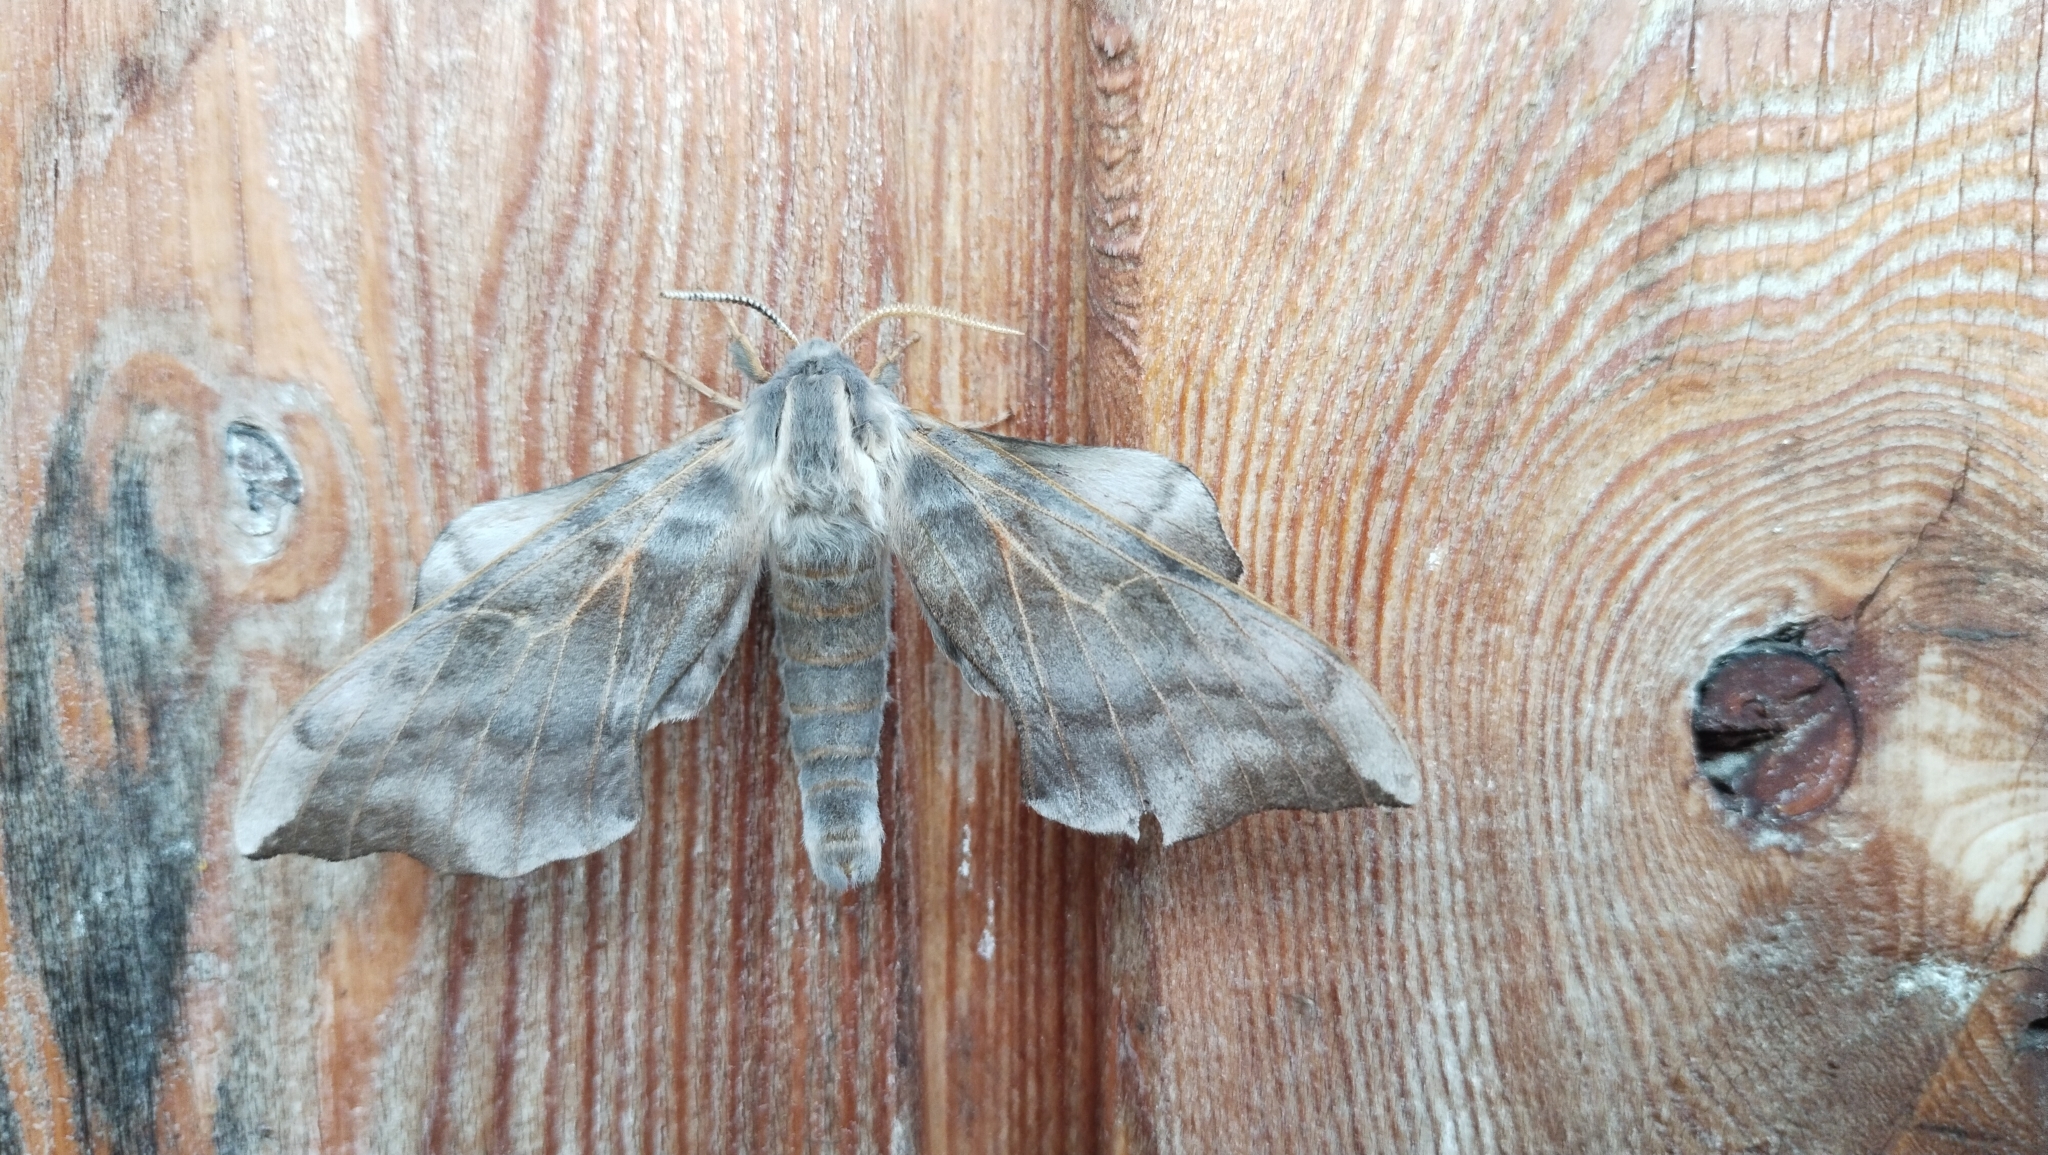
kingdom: Animalia
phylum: Arthropoda
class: Insecta
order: Lepidoptera
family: Sphingidae
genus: Laothoe
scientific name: Laothoe amurensis
